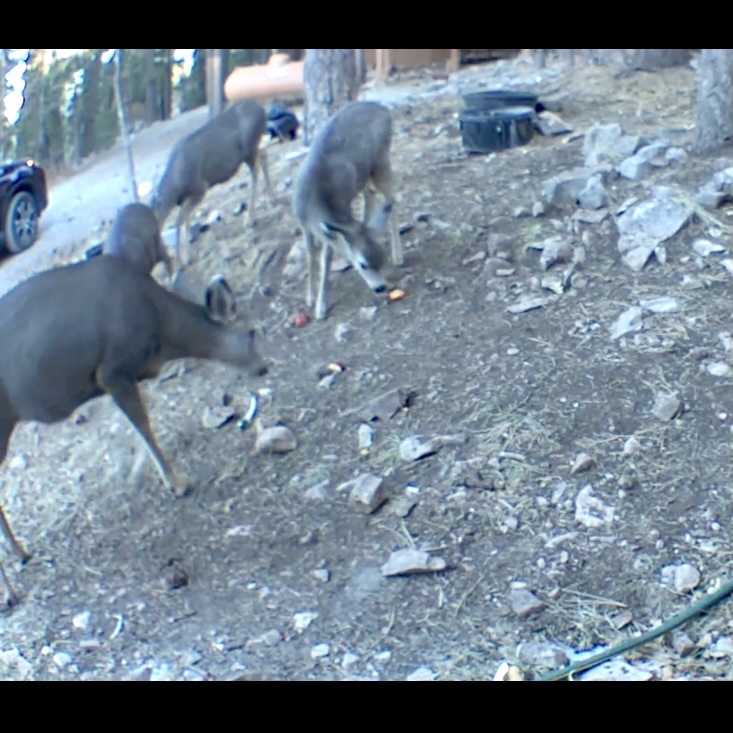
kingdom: Animalia
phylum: Chordata
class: Mammalia
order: Artiodactyla
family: Cervidae
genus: Odocoileus
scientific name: Odocoileus hemionus
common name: Mule deer
